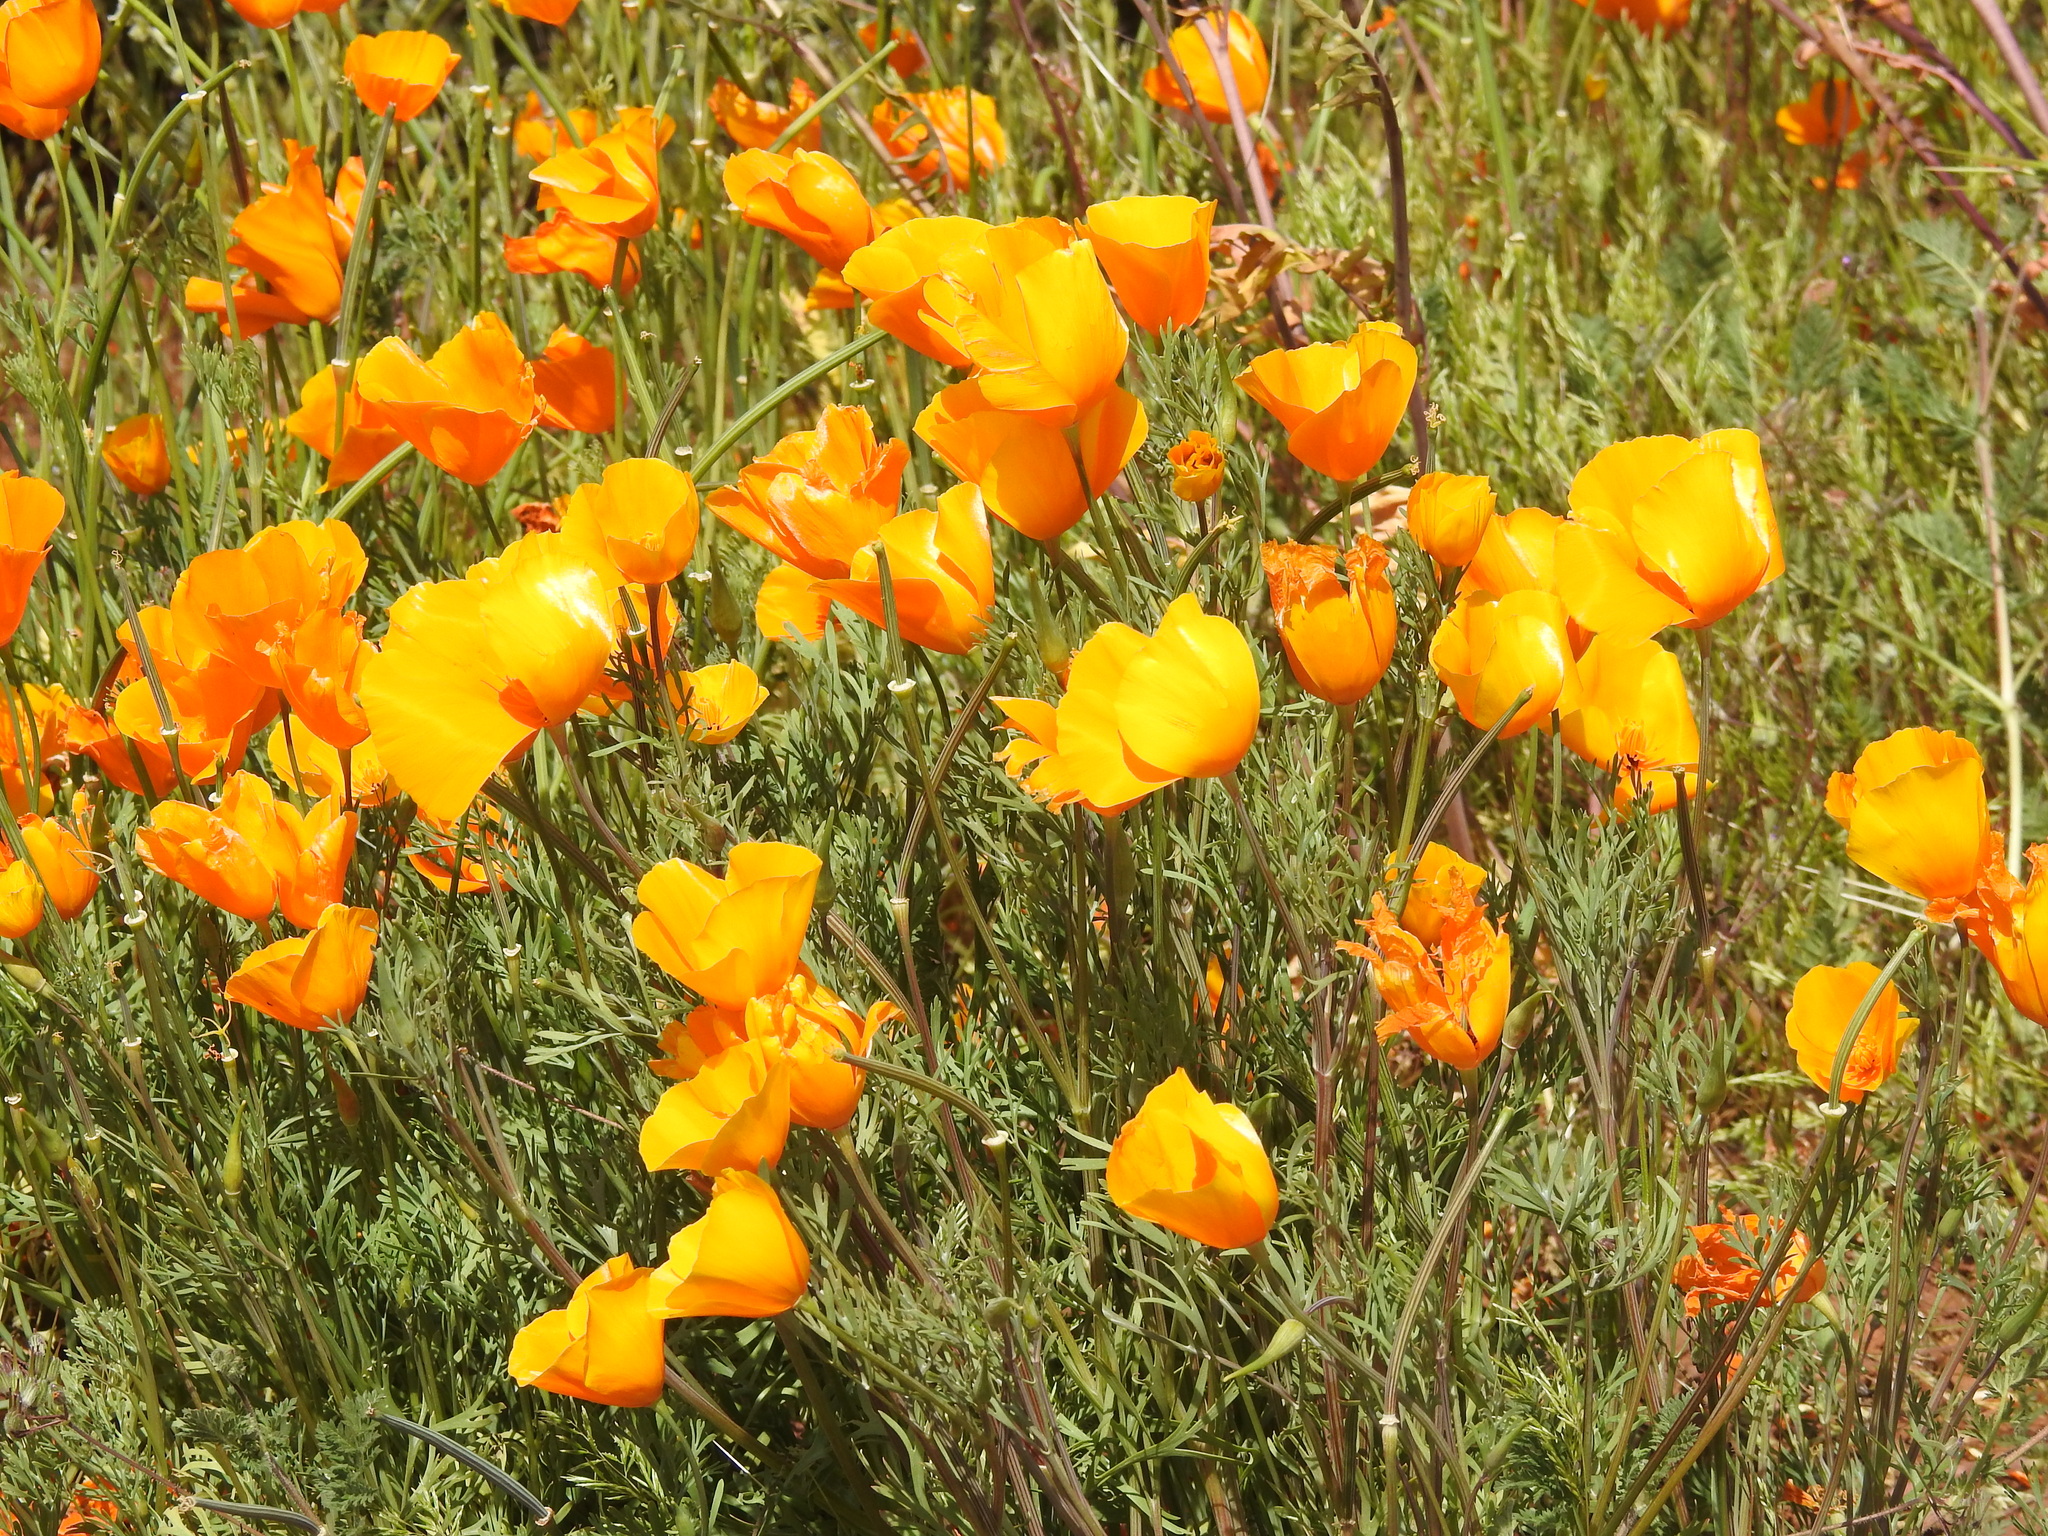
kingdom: Plantae
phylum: Tracheophyta
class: Magnoliopsida
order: Ranunculales
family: Papaveraceae
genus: Eschscholzia
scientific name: Eschscholzia californica
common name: California poppy
